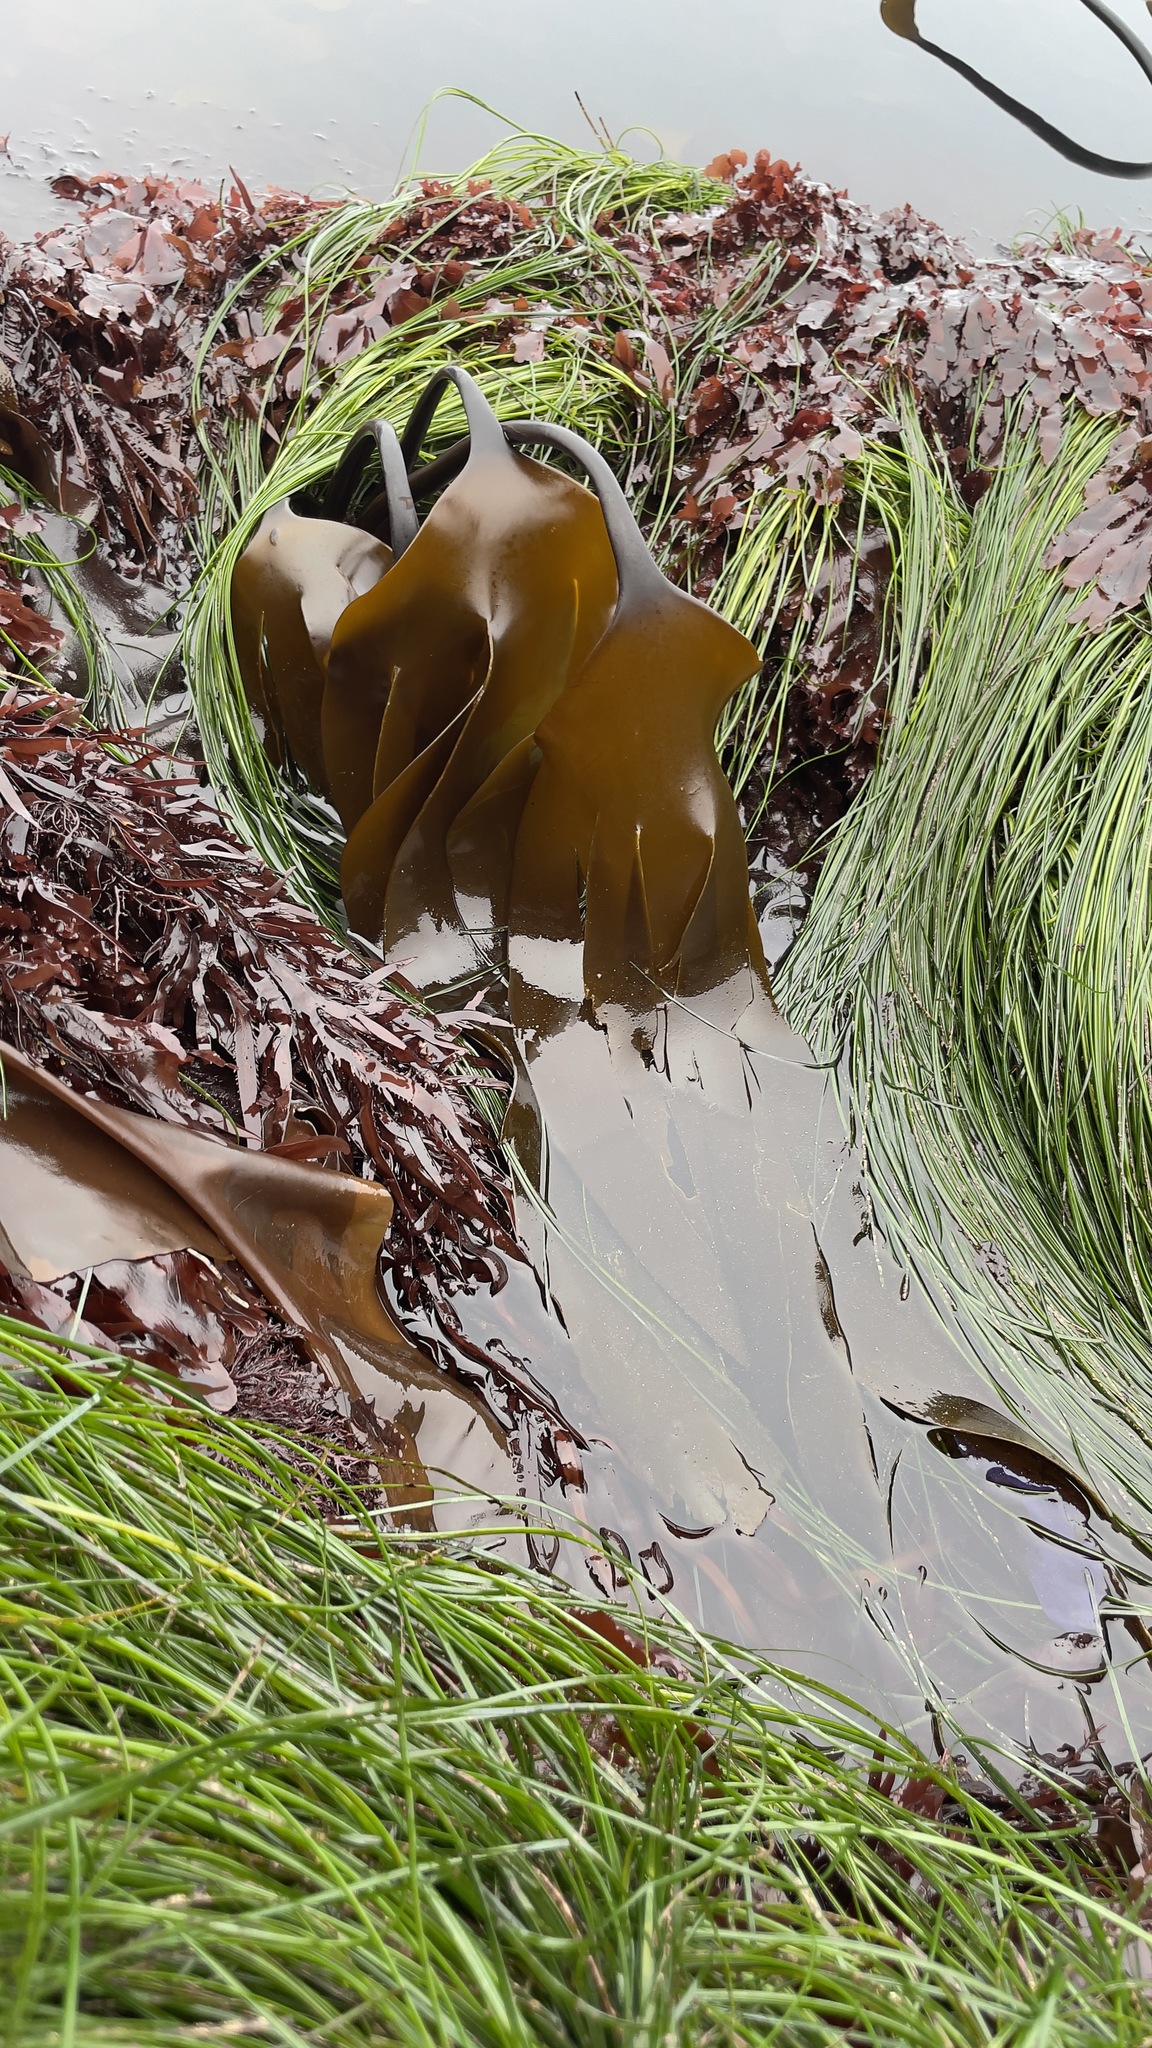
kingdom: Chromista
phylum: Ochrophyta
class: Phaeophyceae
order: Laminariales
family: Laminariaceae
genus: Laminaria
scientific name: Laminaria setchellii
